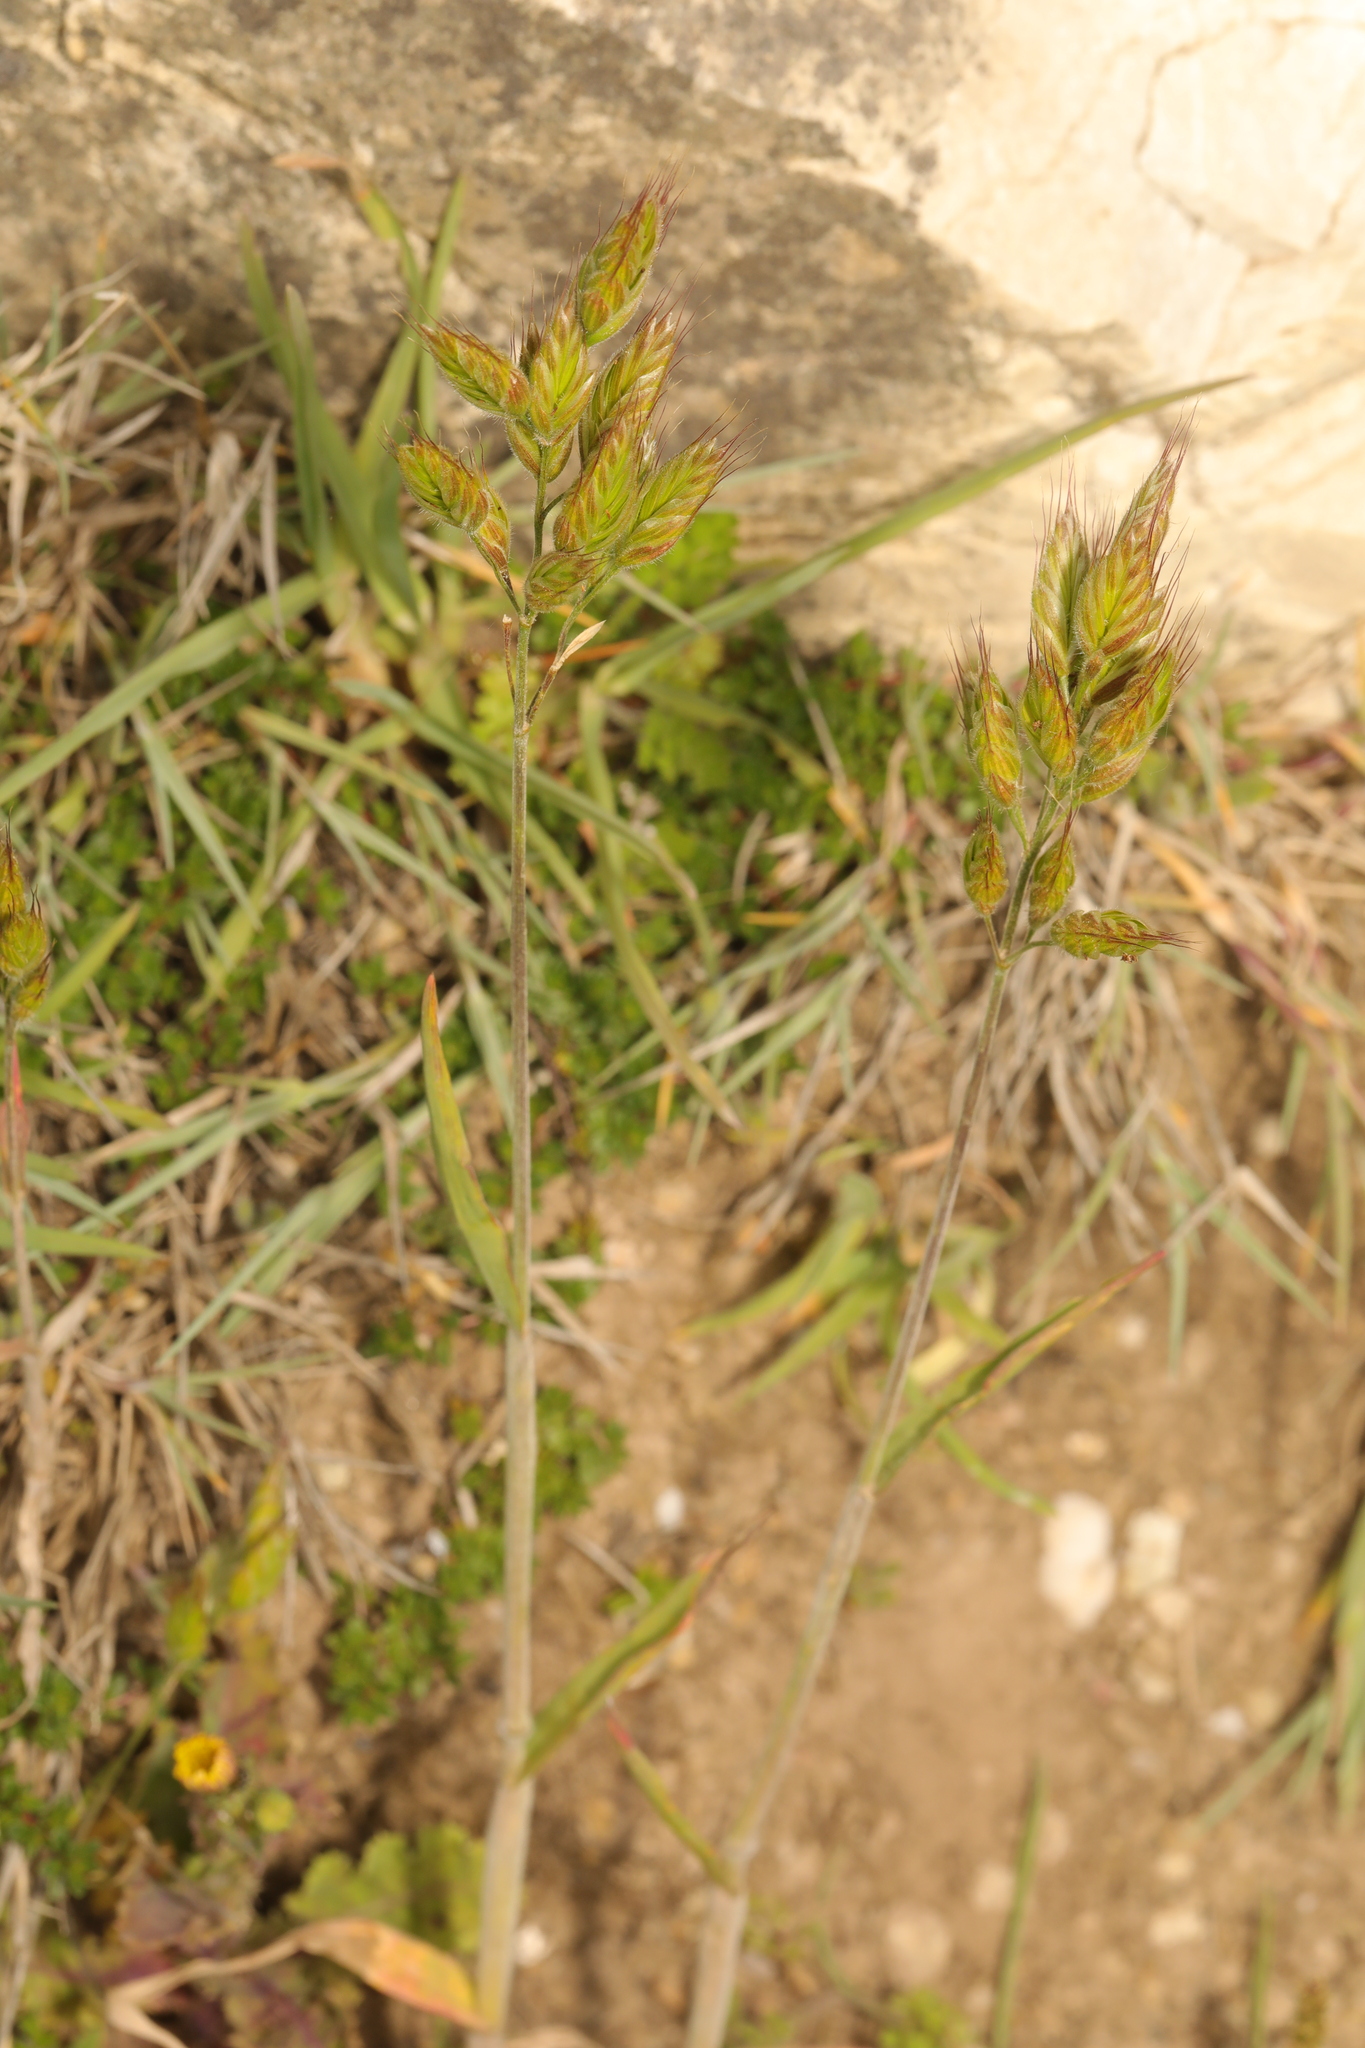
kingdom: Plantae
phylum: Tracheophyta
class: Liliopsida
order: Poales
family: Poaceae
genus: Bromus
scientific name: Bromus hordeaceus
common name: Soft brome
